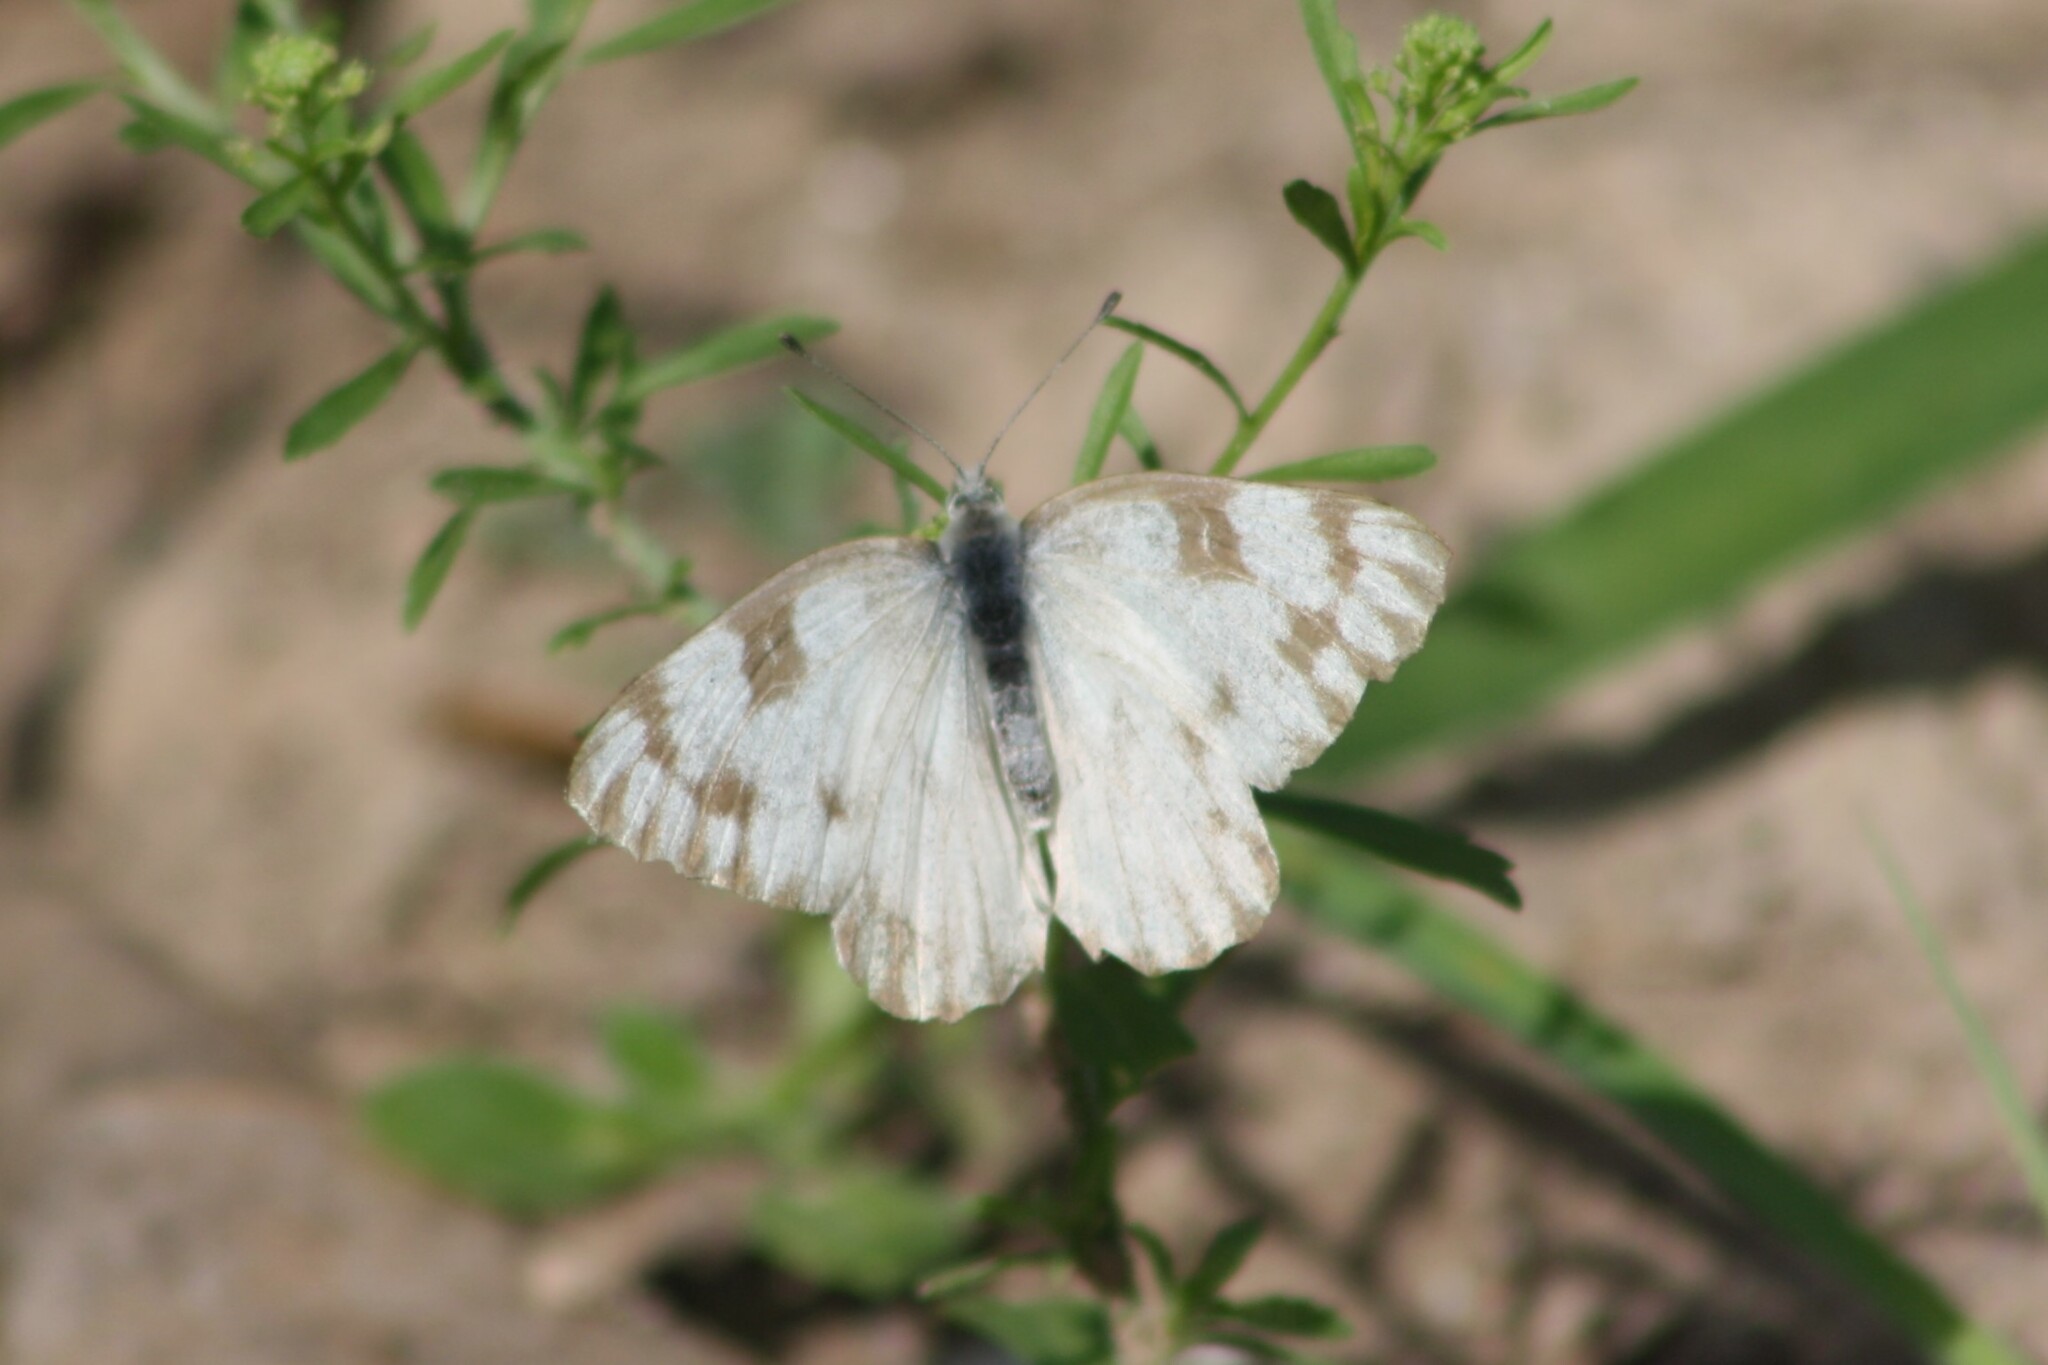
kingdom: Animalia
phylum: Arthropoda
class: Insecta
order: Lepidoptera
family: Pieridae
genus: Pontia
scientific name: Pontia protodice
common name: Checkered white
